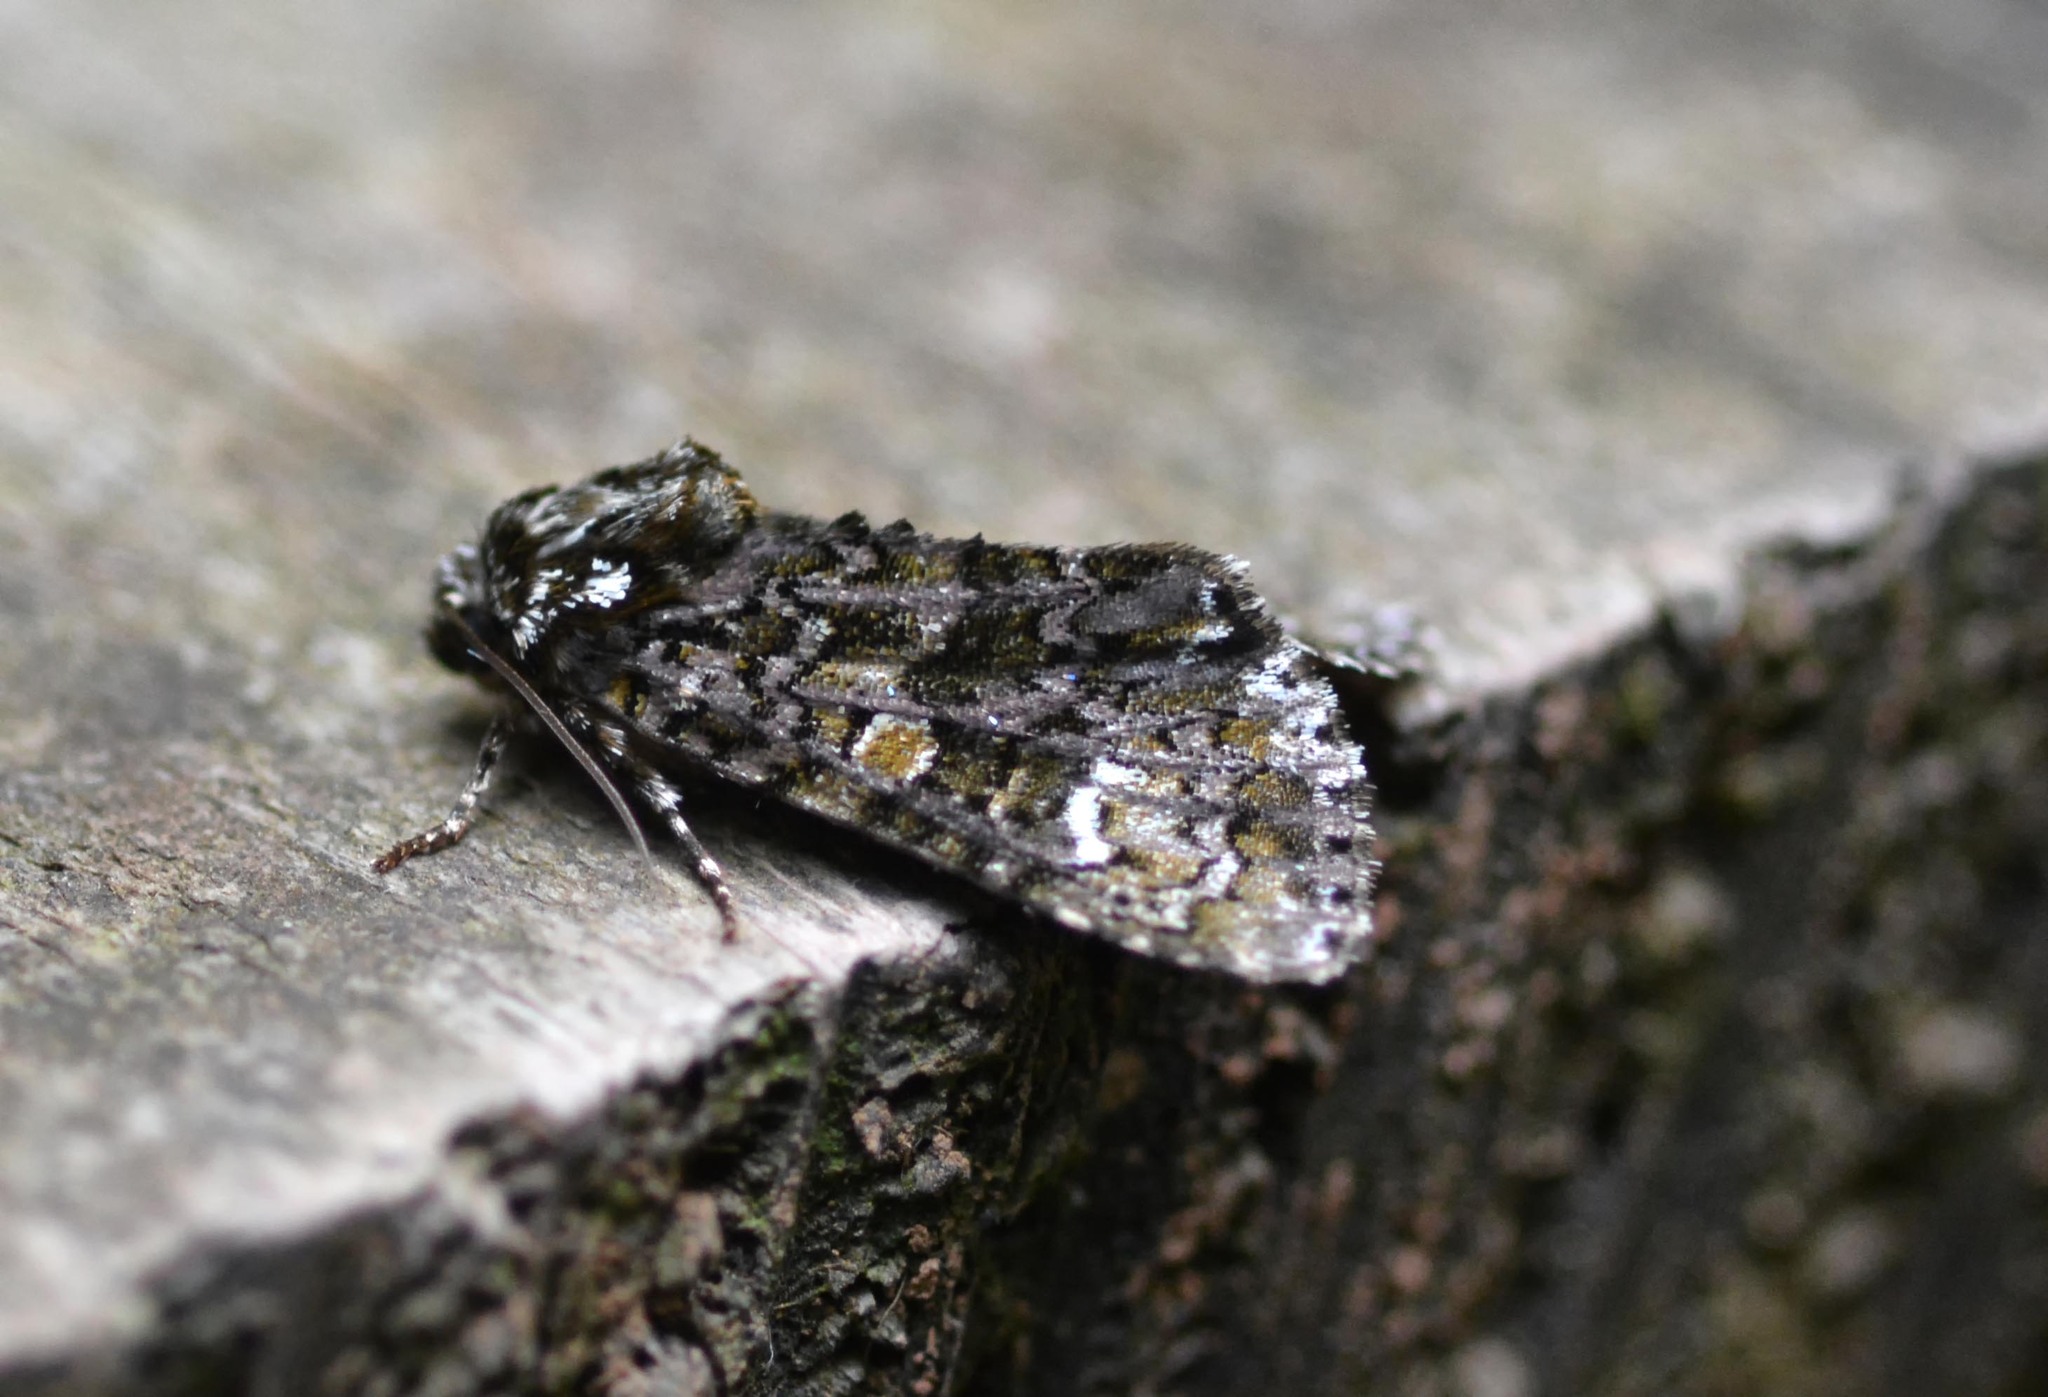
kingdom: Animalia
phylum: Arthropoda
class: Insecta
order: Lepidoptera
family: Noctuidae
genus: Craniophora
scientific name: Craniophora ligustri
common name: Coronet
